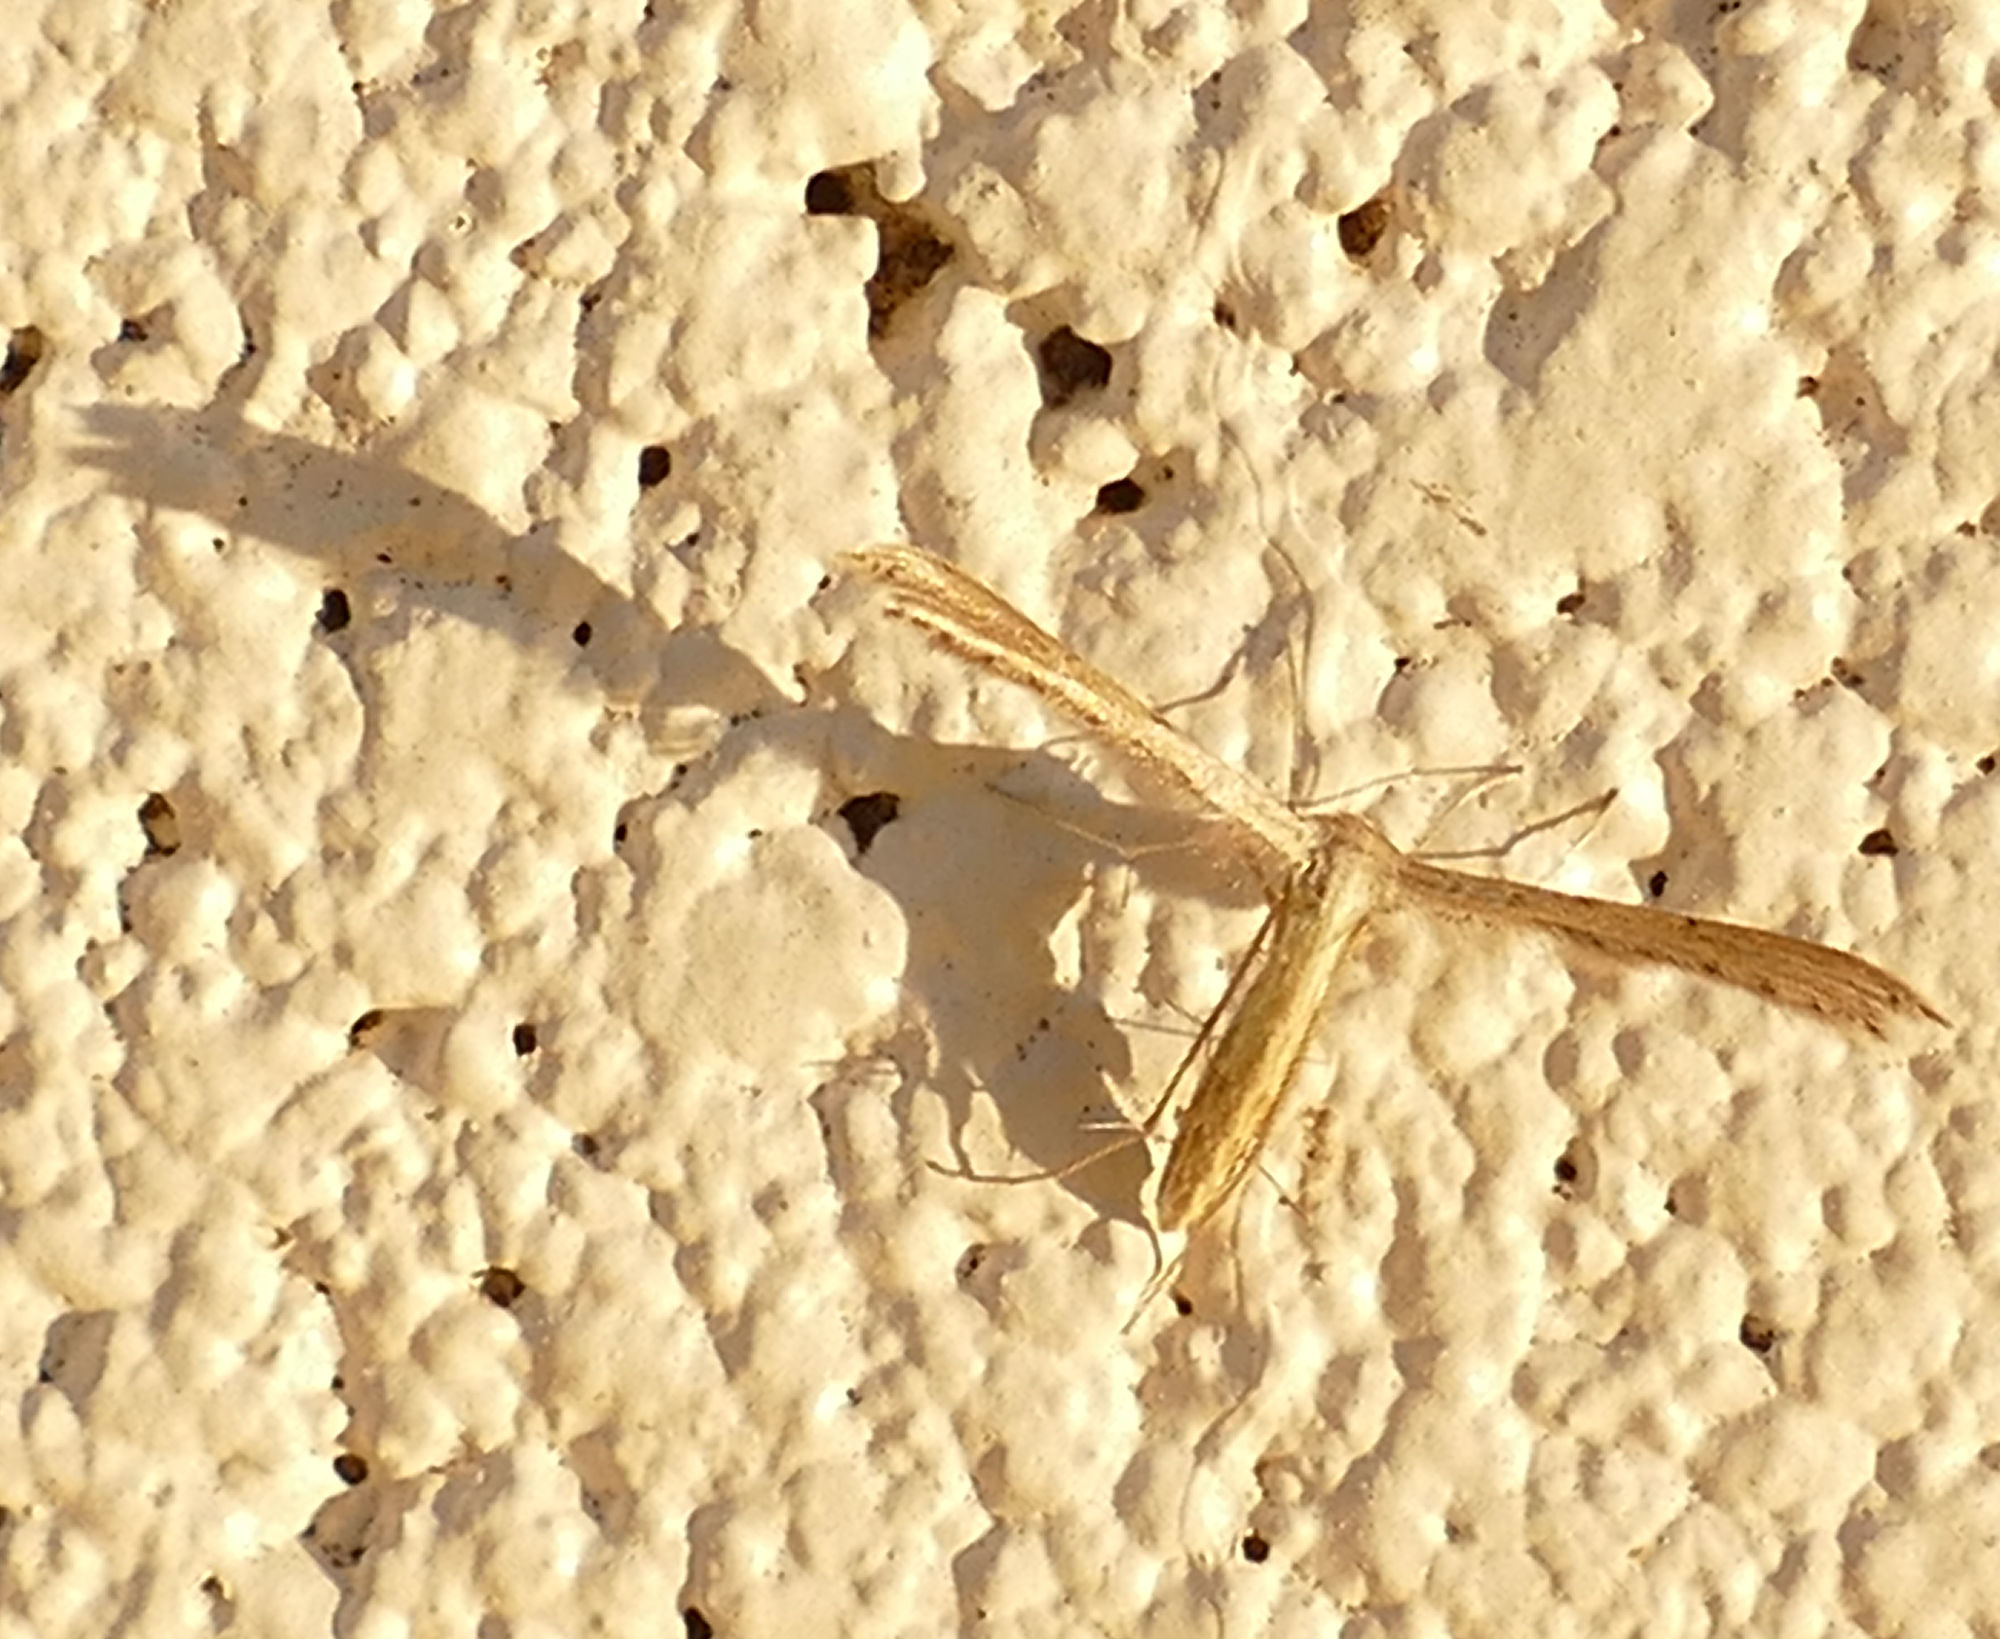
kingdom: Animalia
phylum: Arthropoda
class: Insecta
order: Lepidoptera
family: Pterophoridae
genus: Exelastis
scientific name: Exelastis montischristi
